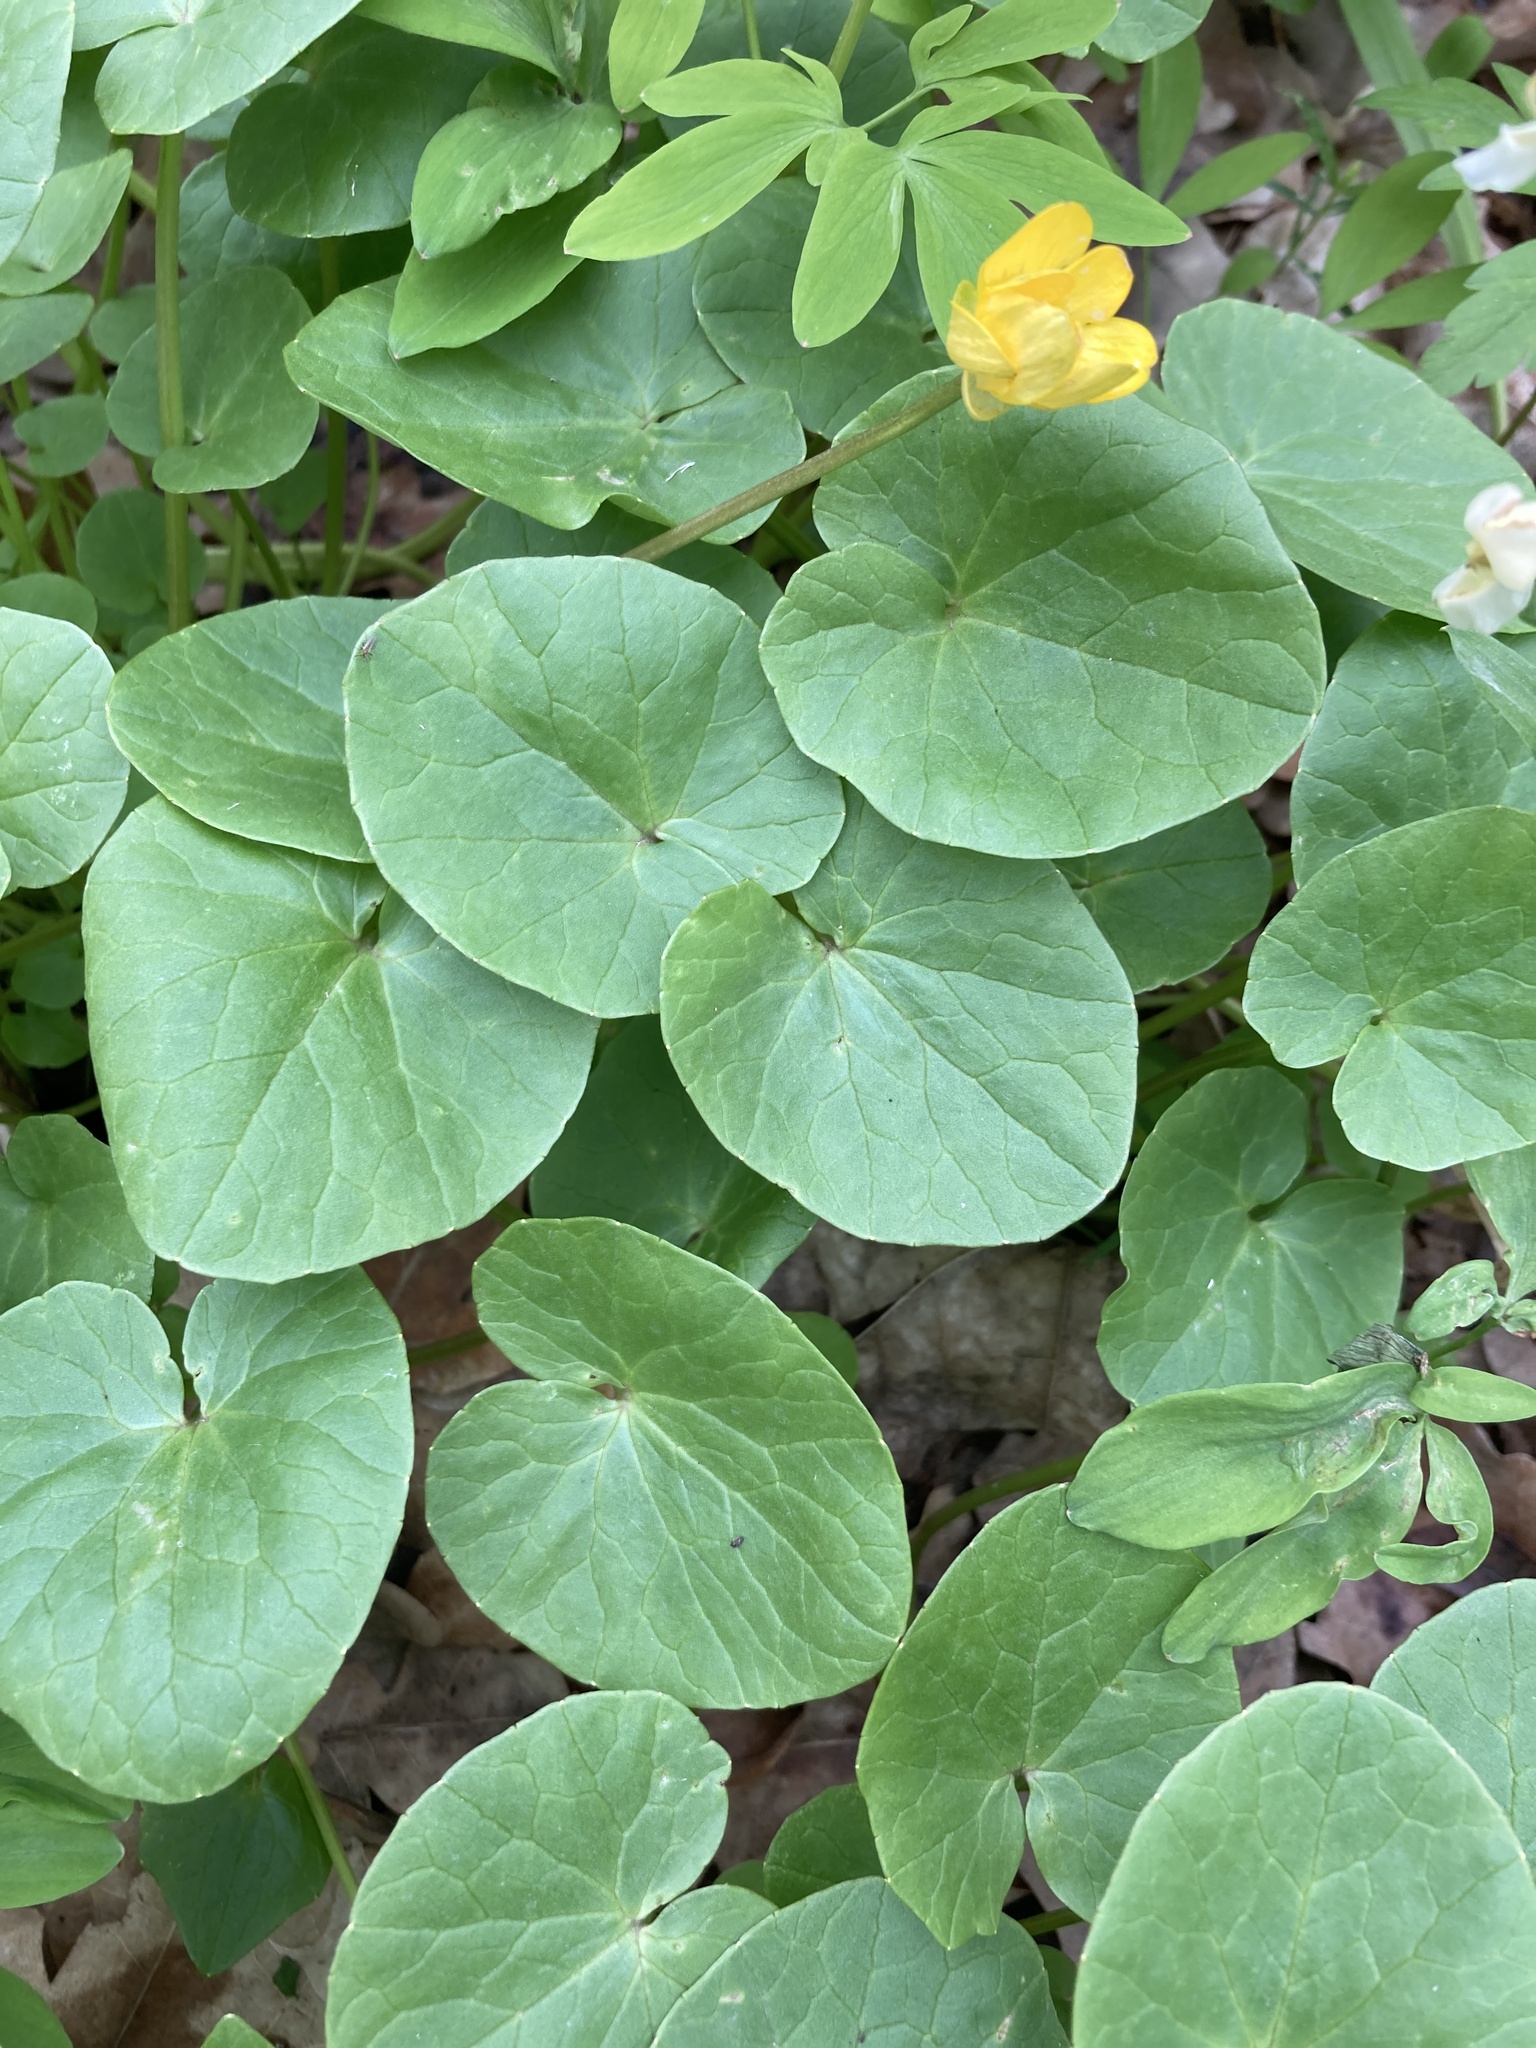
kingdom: Plantae
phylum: Tracheophyta
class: Magnoliopsida
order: Ranunculales
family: Ranunculaceae
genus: Ficaria
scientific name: Ficaria verna
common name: Lesser celandine
